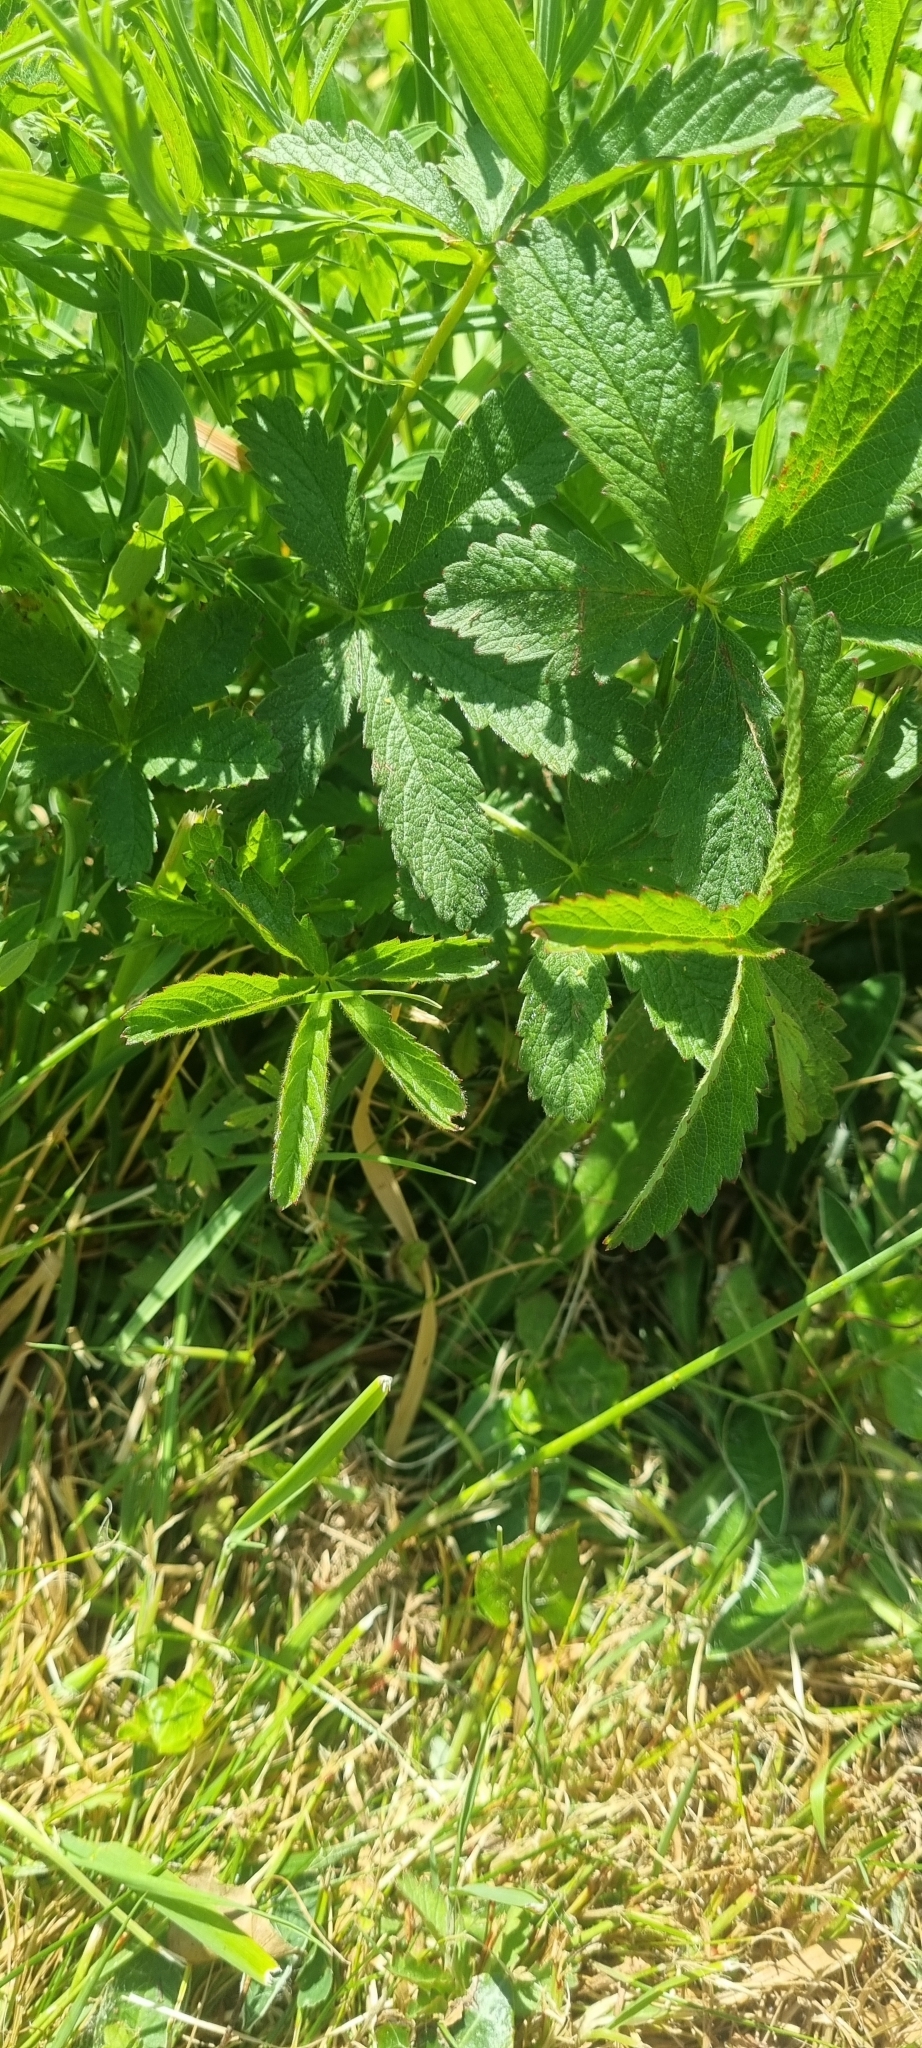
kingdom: Plantae
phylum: Tracheophyta
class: Magnoliopsida
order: Rosales
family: Rosaceae
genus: Potentilla
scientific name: Potentilla reptans
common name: Creeping cinquefoil
